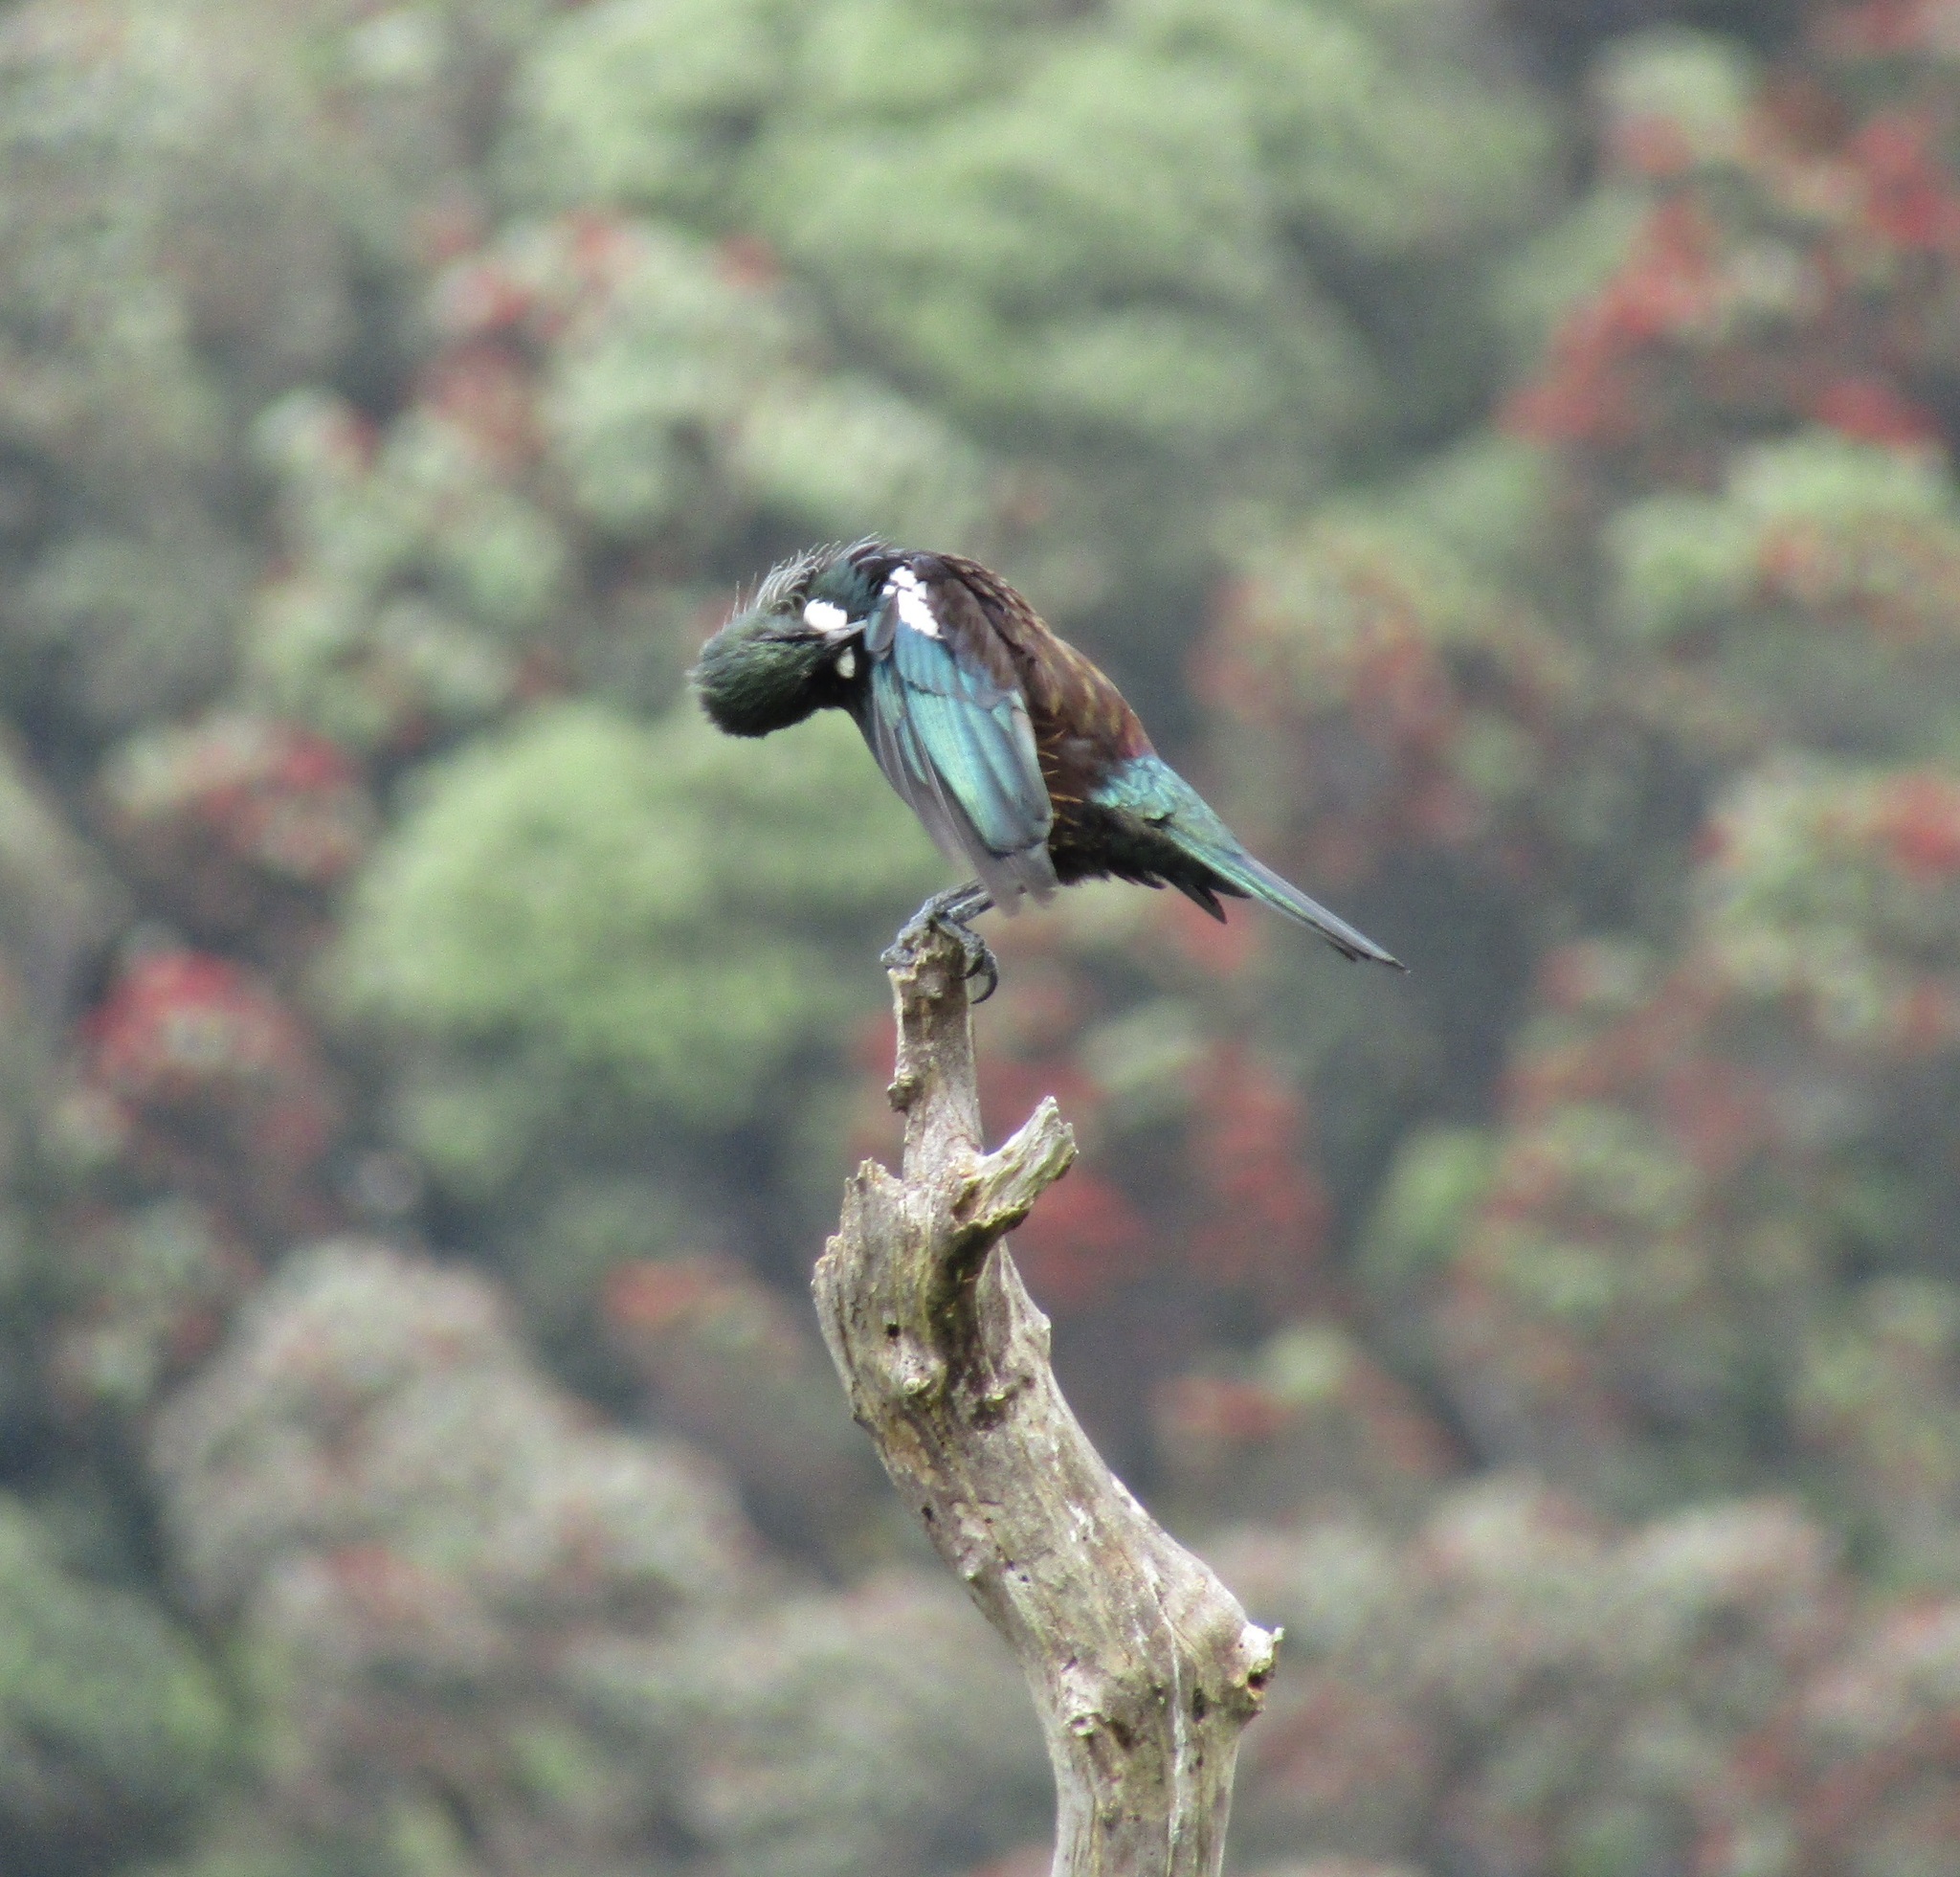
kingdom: Animalia
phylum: Chordata
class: Aves
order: Passeriformes
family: Meliphagidae
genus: Prosthemadera
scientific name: Prosthemadera novaeseelandiae
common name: Tui
